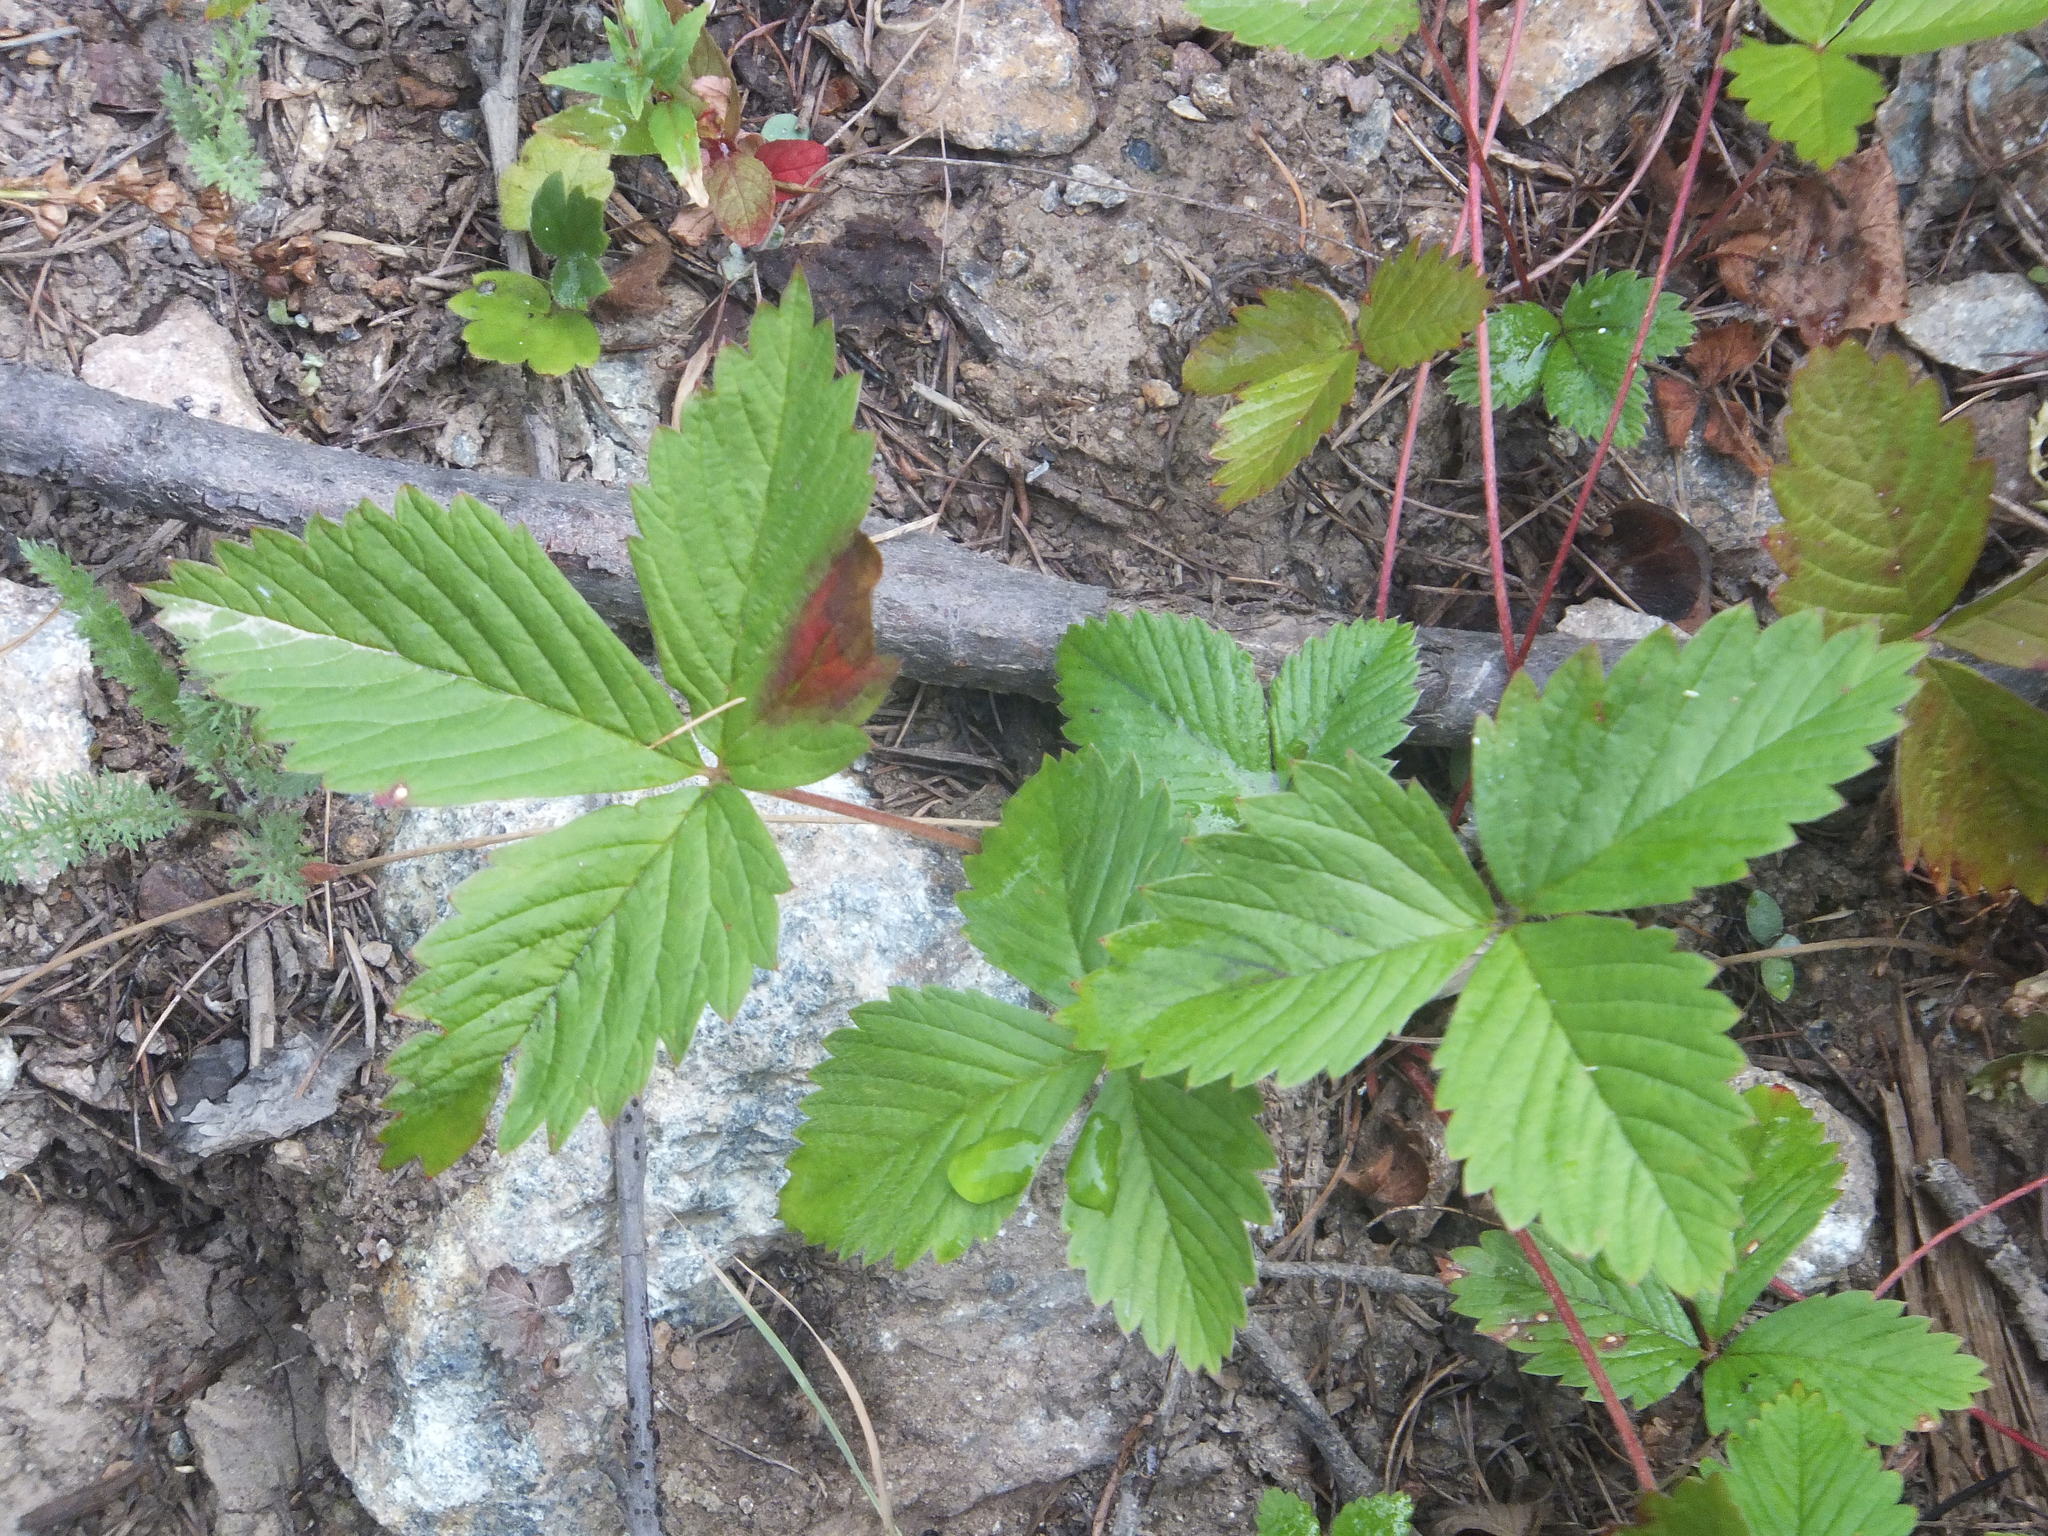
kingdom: Plantae
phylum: Tracheophyta
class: Magnoliopsida
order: Rosales
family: Rosaceae
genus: Fragaria
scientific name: Fragaria vesca
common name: Wild strawberry
